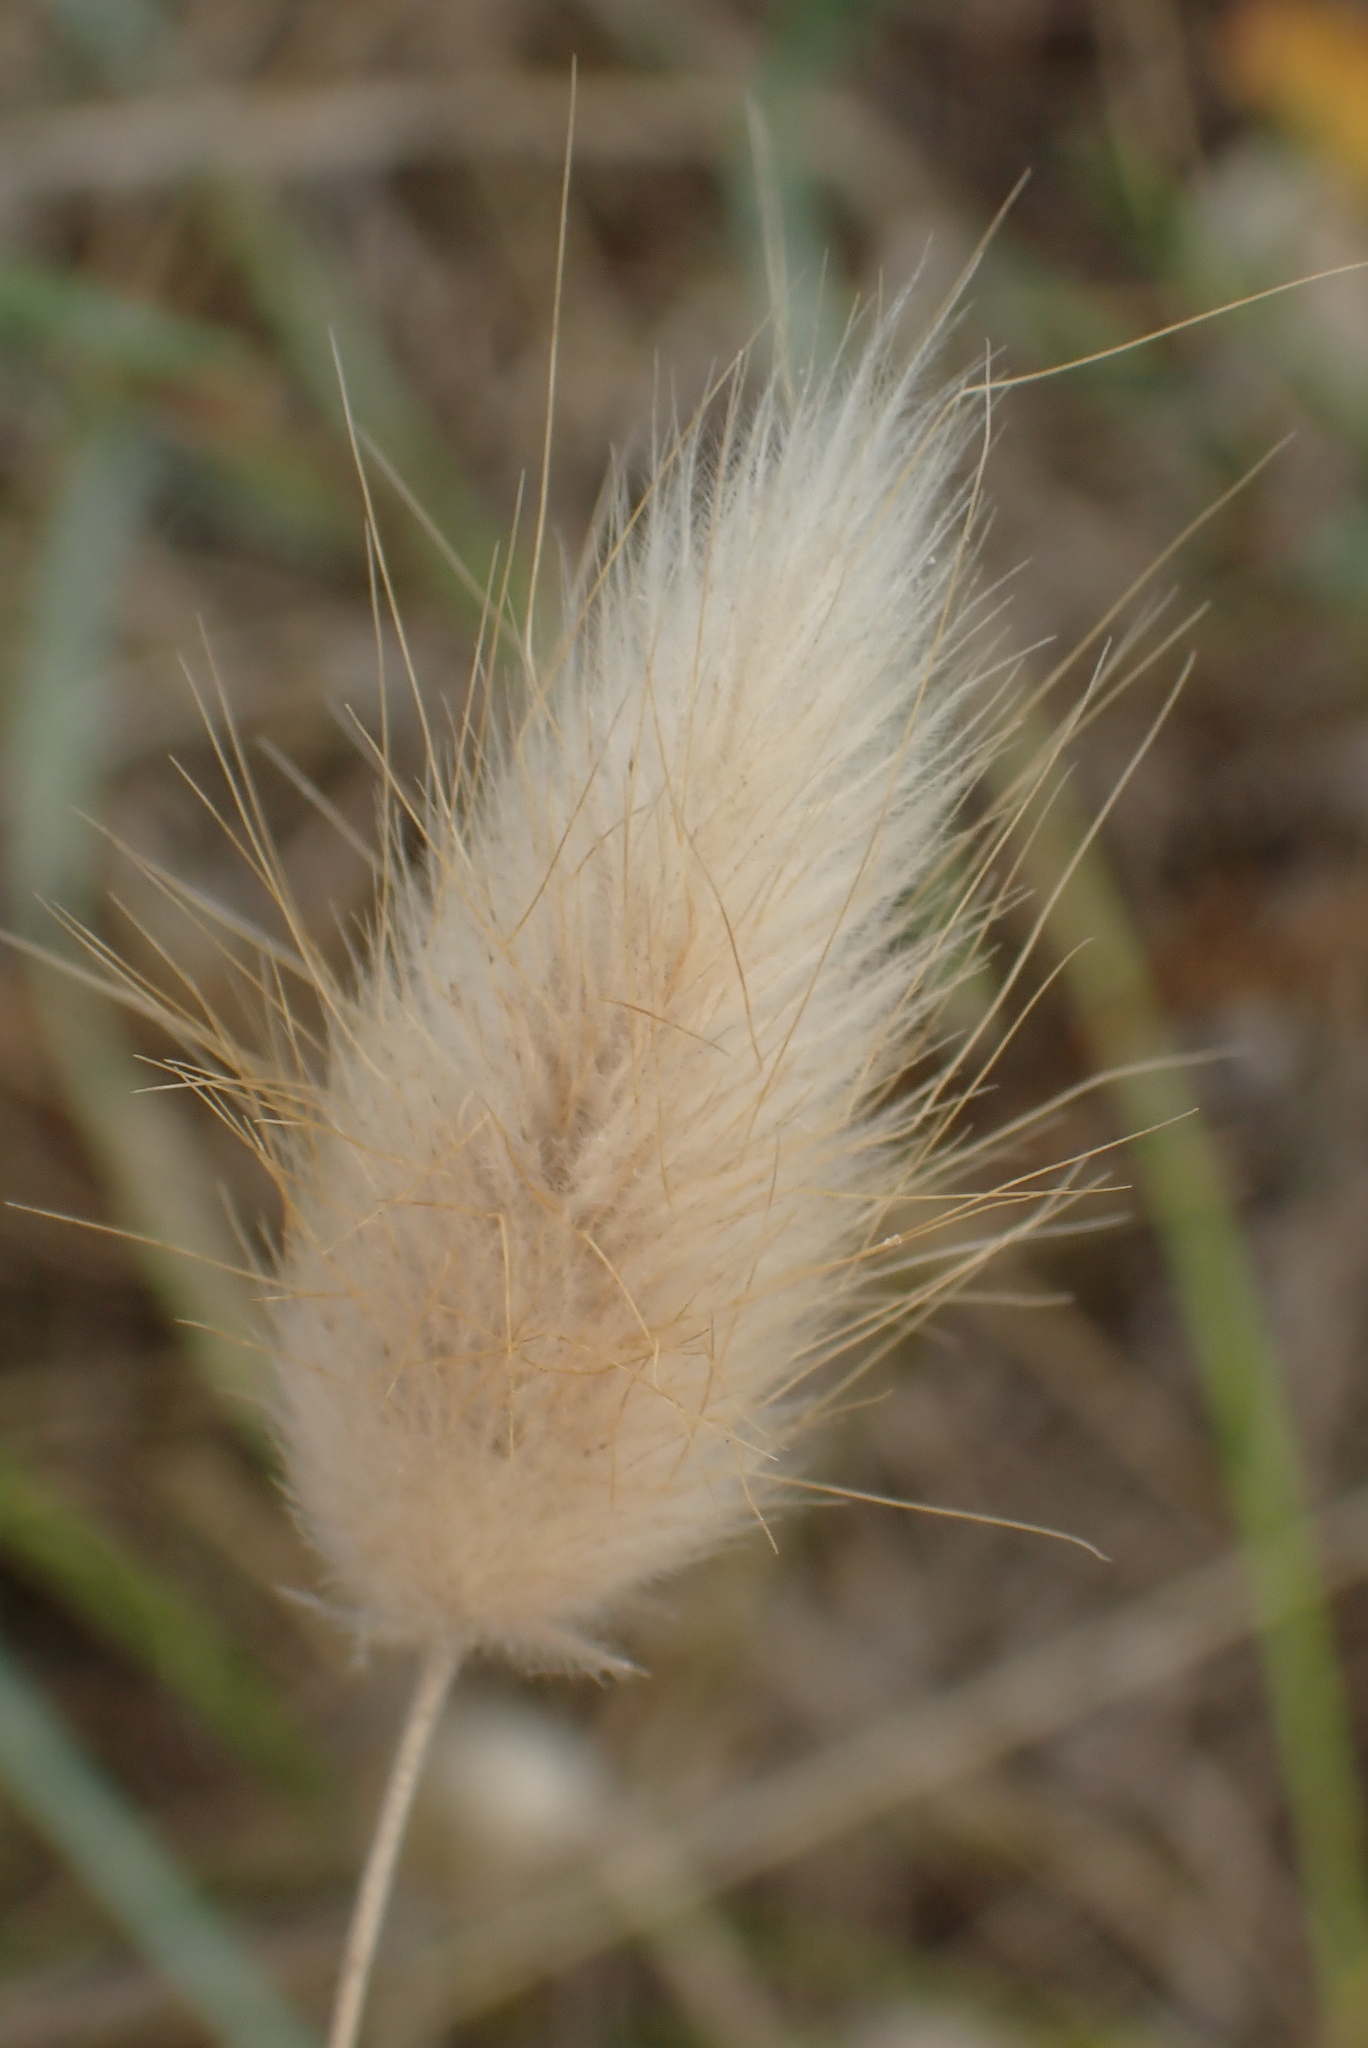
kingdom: Plantae
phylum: Tracheophyta
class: Liliopsida
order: Poales
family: Poaceae
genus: Lagurus
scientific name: Lagurus ovatus
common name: Hare's-tail
